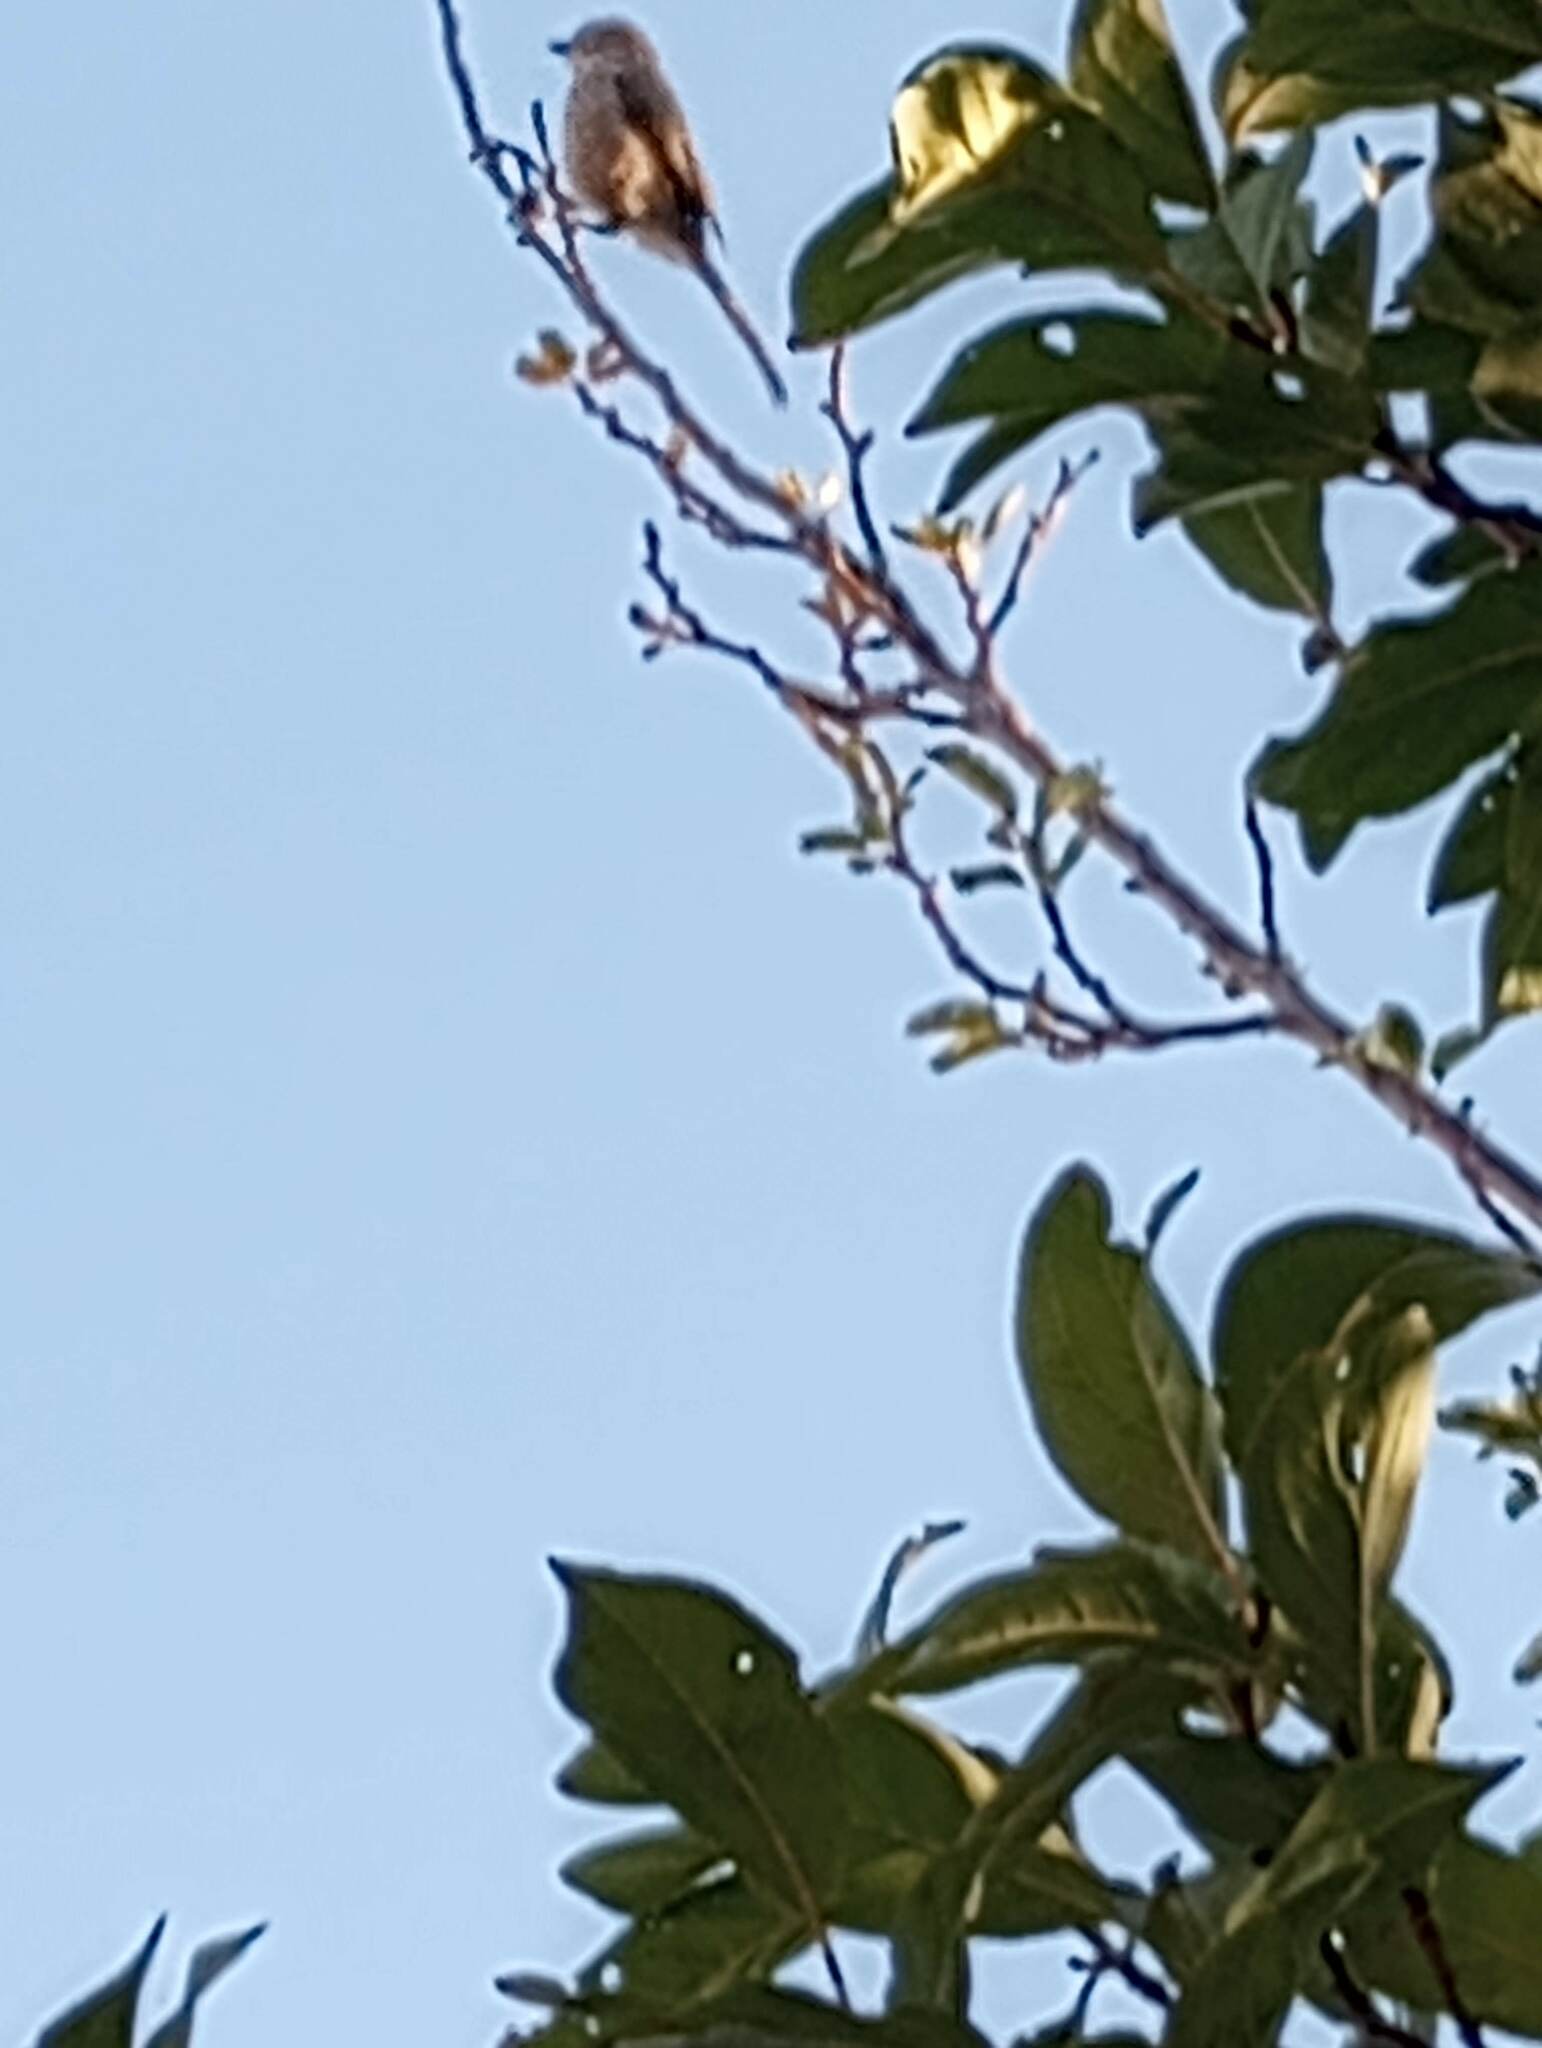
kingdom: Animalia
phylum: Chordata
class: Aves
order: Passeriformes
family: Aegithalidae
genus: Psaltriparus
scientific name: Psaltriparus minimus
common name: American bushtit
